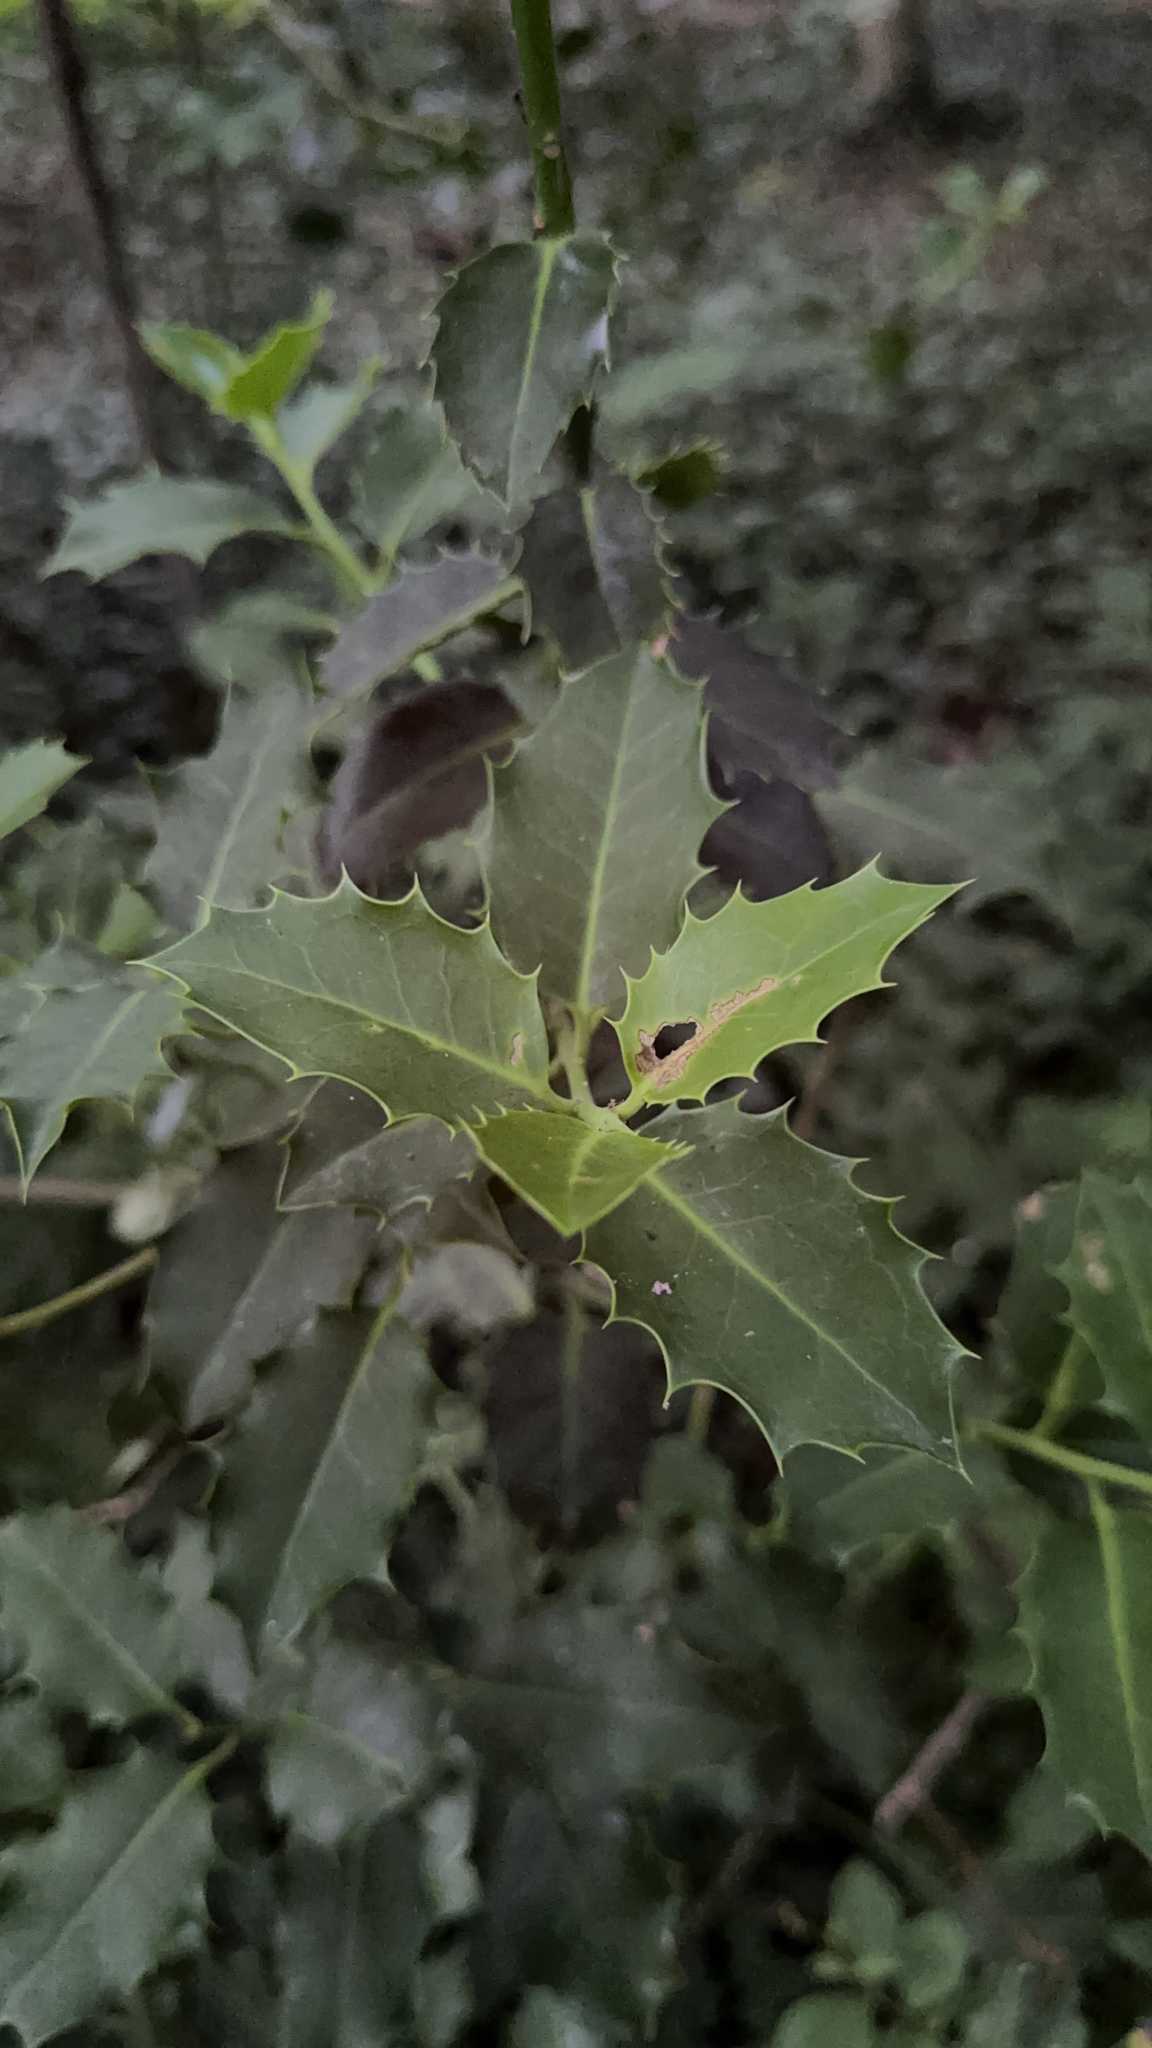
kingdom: Plantae
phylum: Tracheophyta
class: Magnoliopsida
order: Aquifoliales
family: Aquifoliaceae
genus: Ilex
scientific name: Ilex aquifolium
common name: English holly
